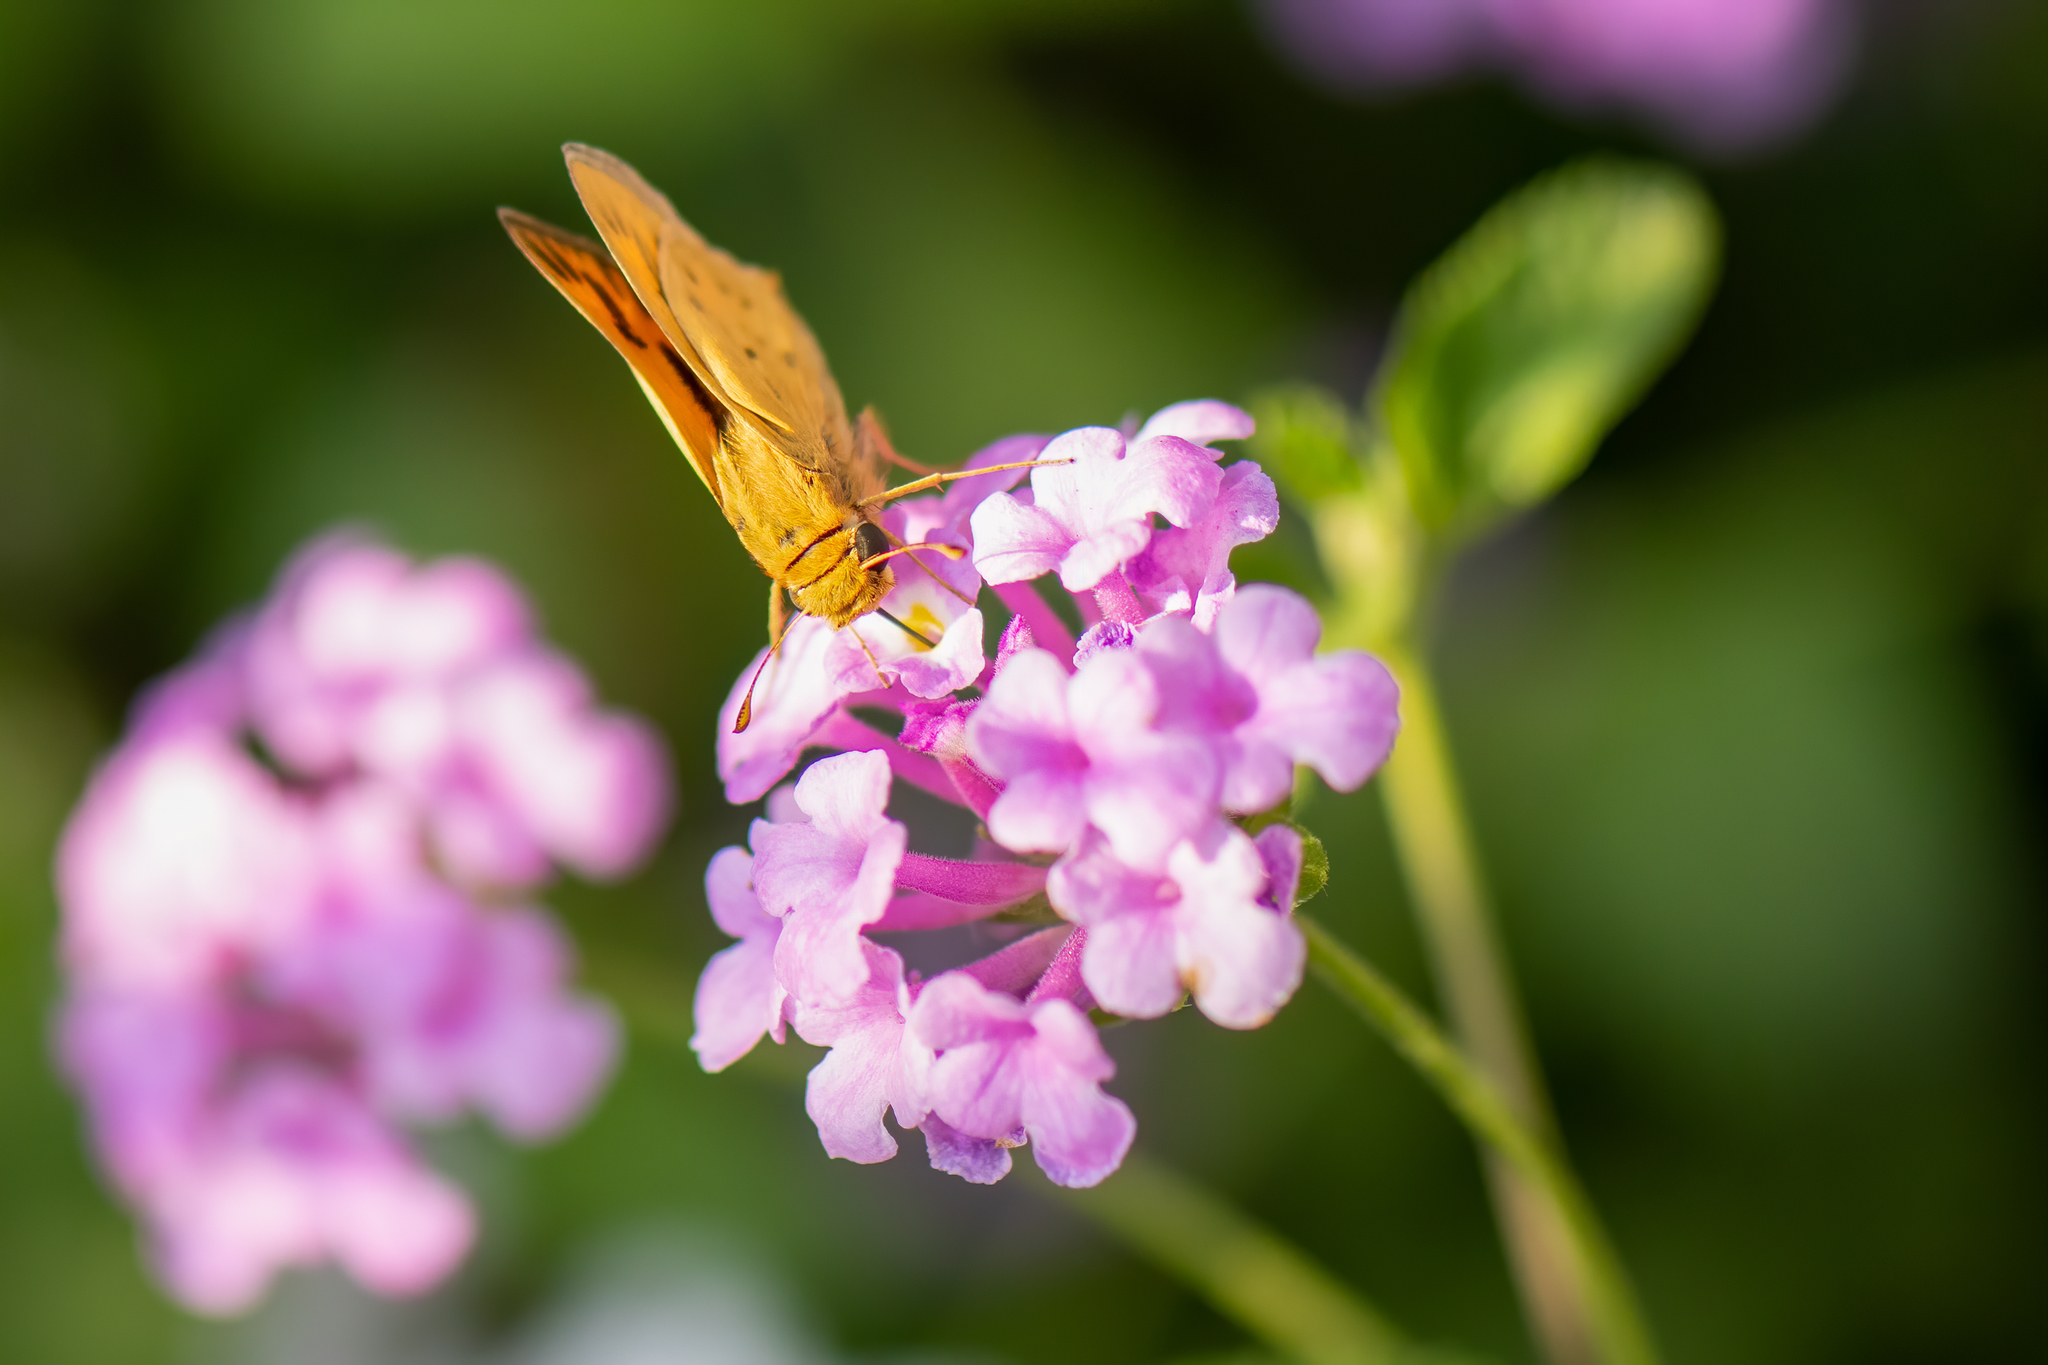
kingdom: Animalia
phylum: Arthropoda
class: Insecta
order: Lepidoptera
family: Hesperiidae
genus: Hylephila
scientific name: Hylephila phyleus
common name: Fiery skipper
